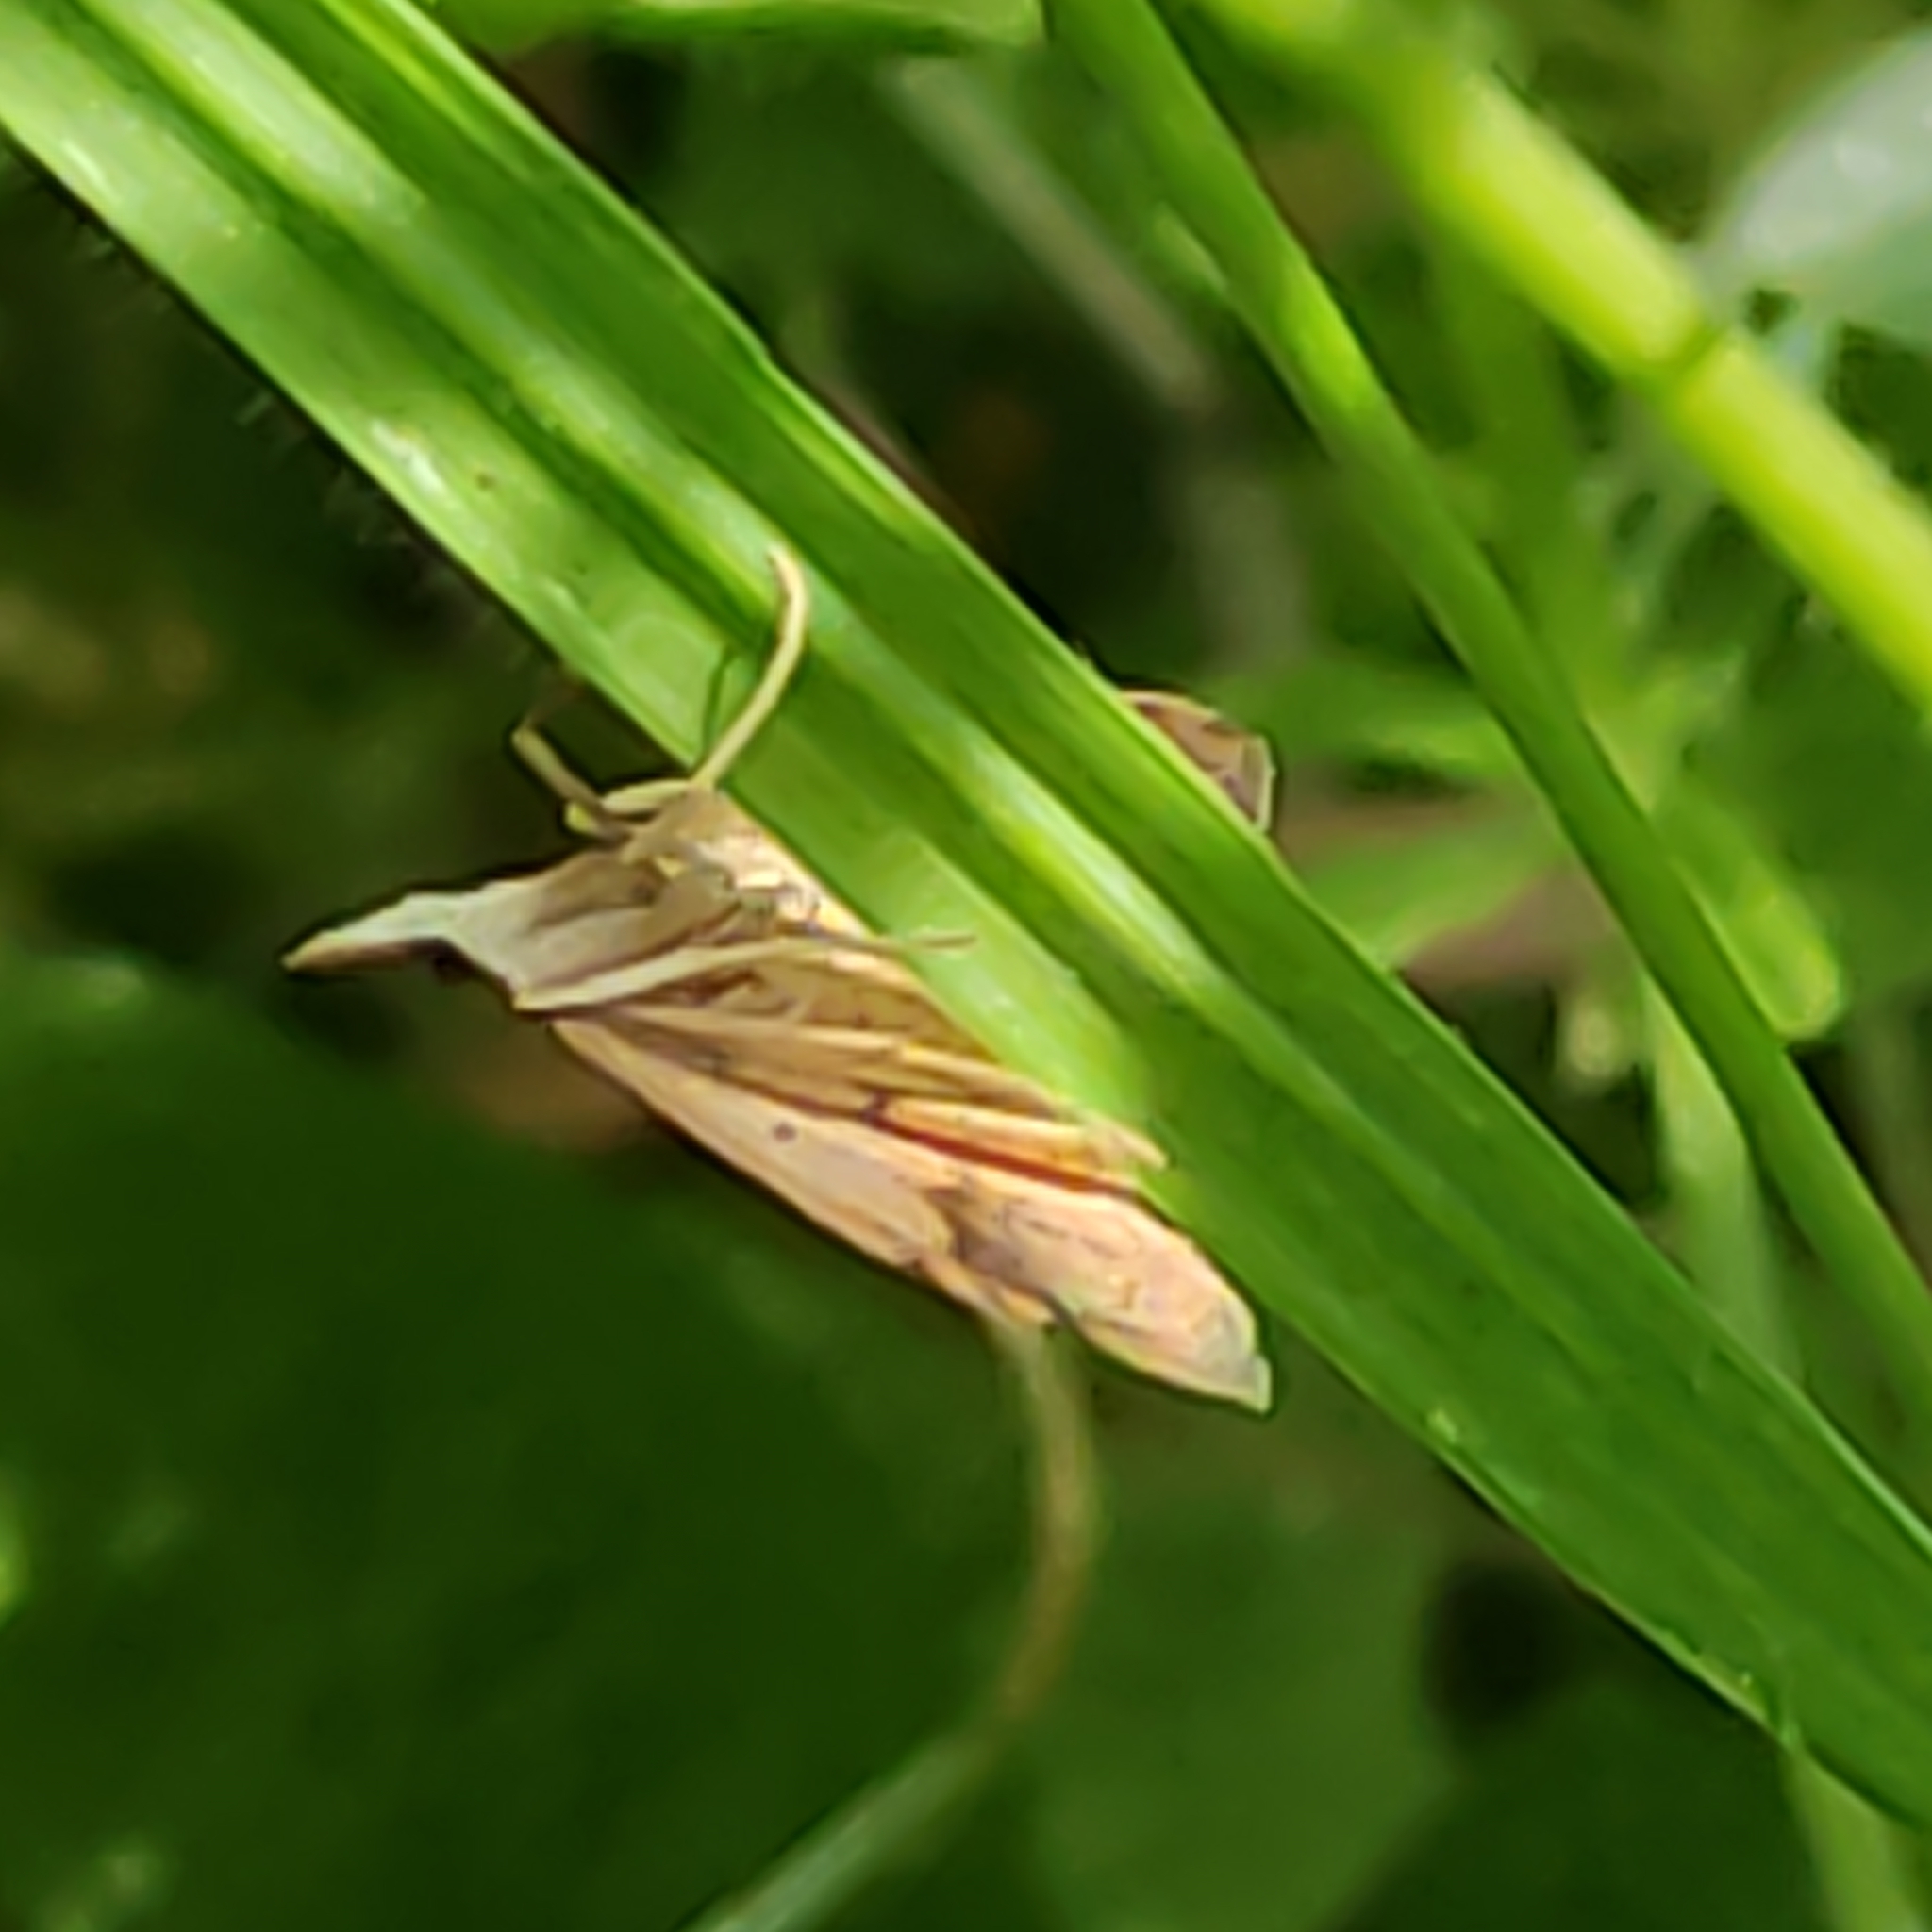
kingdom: Animalia
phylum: Arthropoda
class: Insecta
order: Lepidoptera
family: Crambidae
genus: Udea
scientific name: Udea Mnesictena flavidalis
